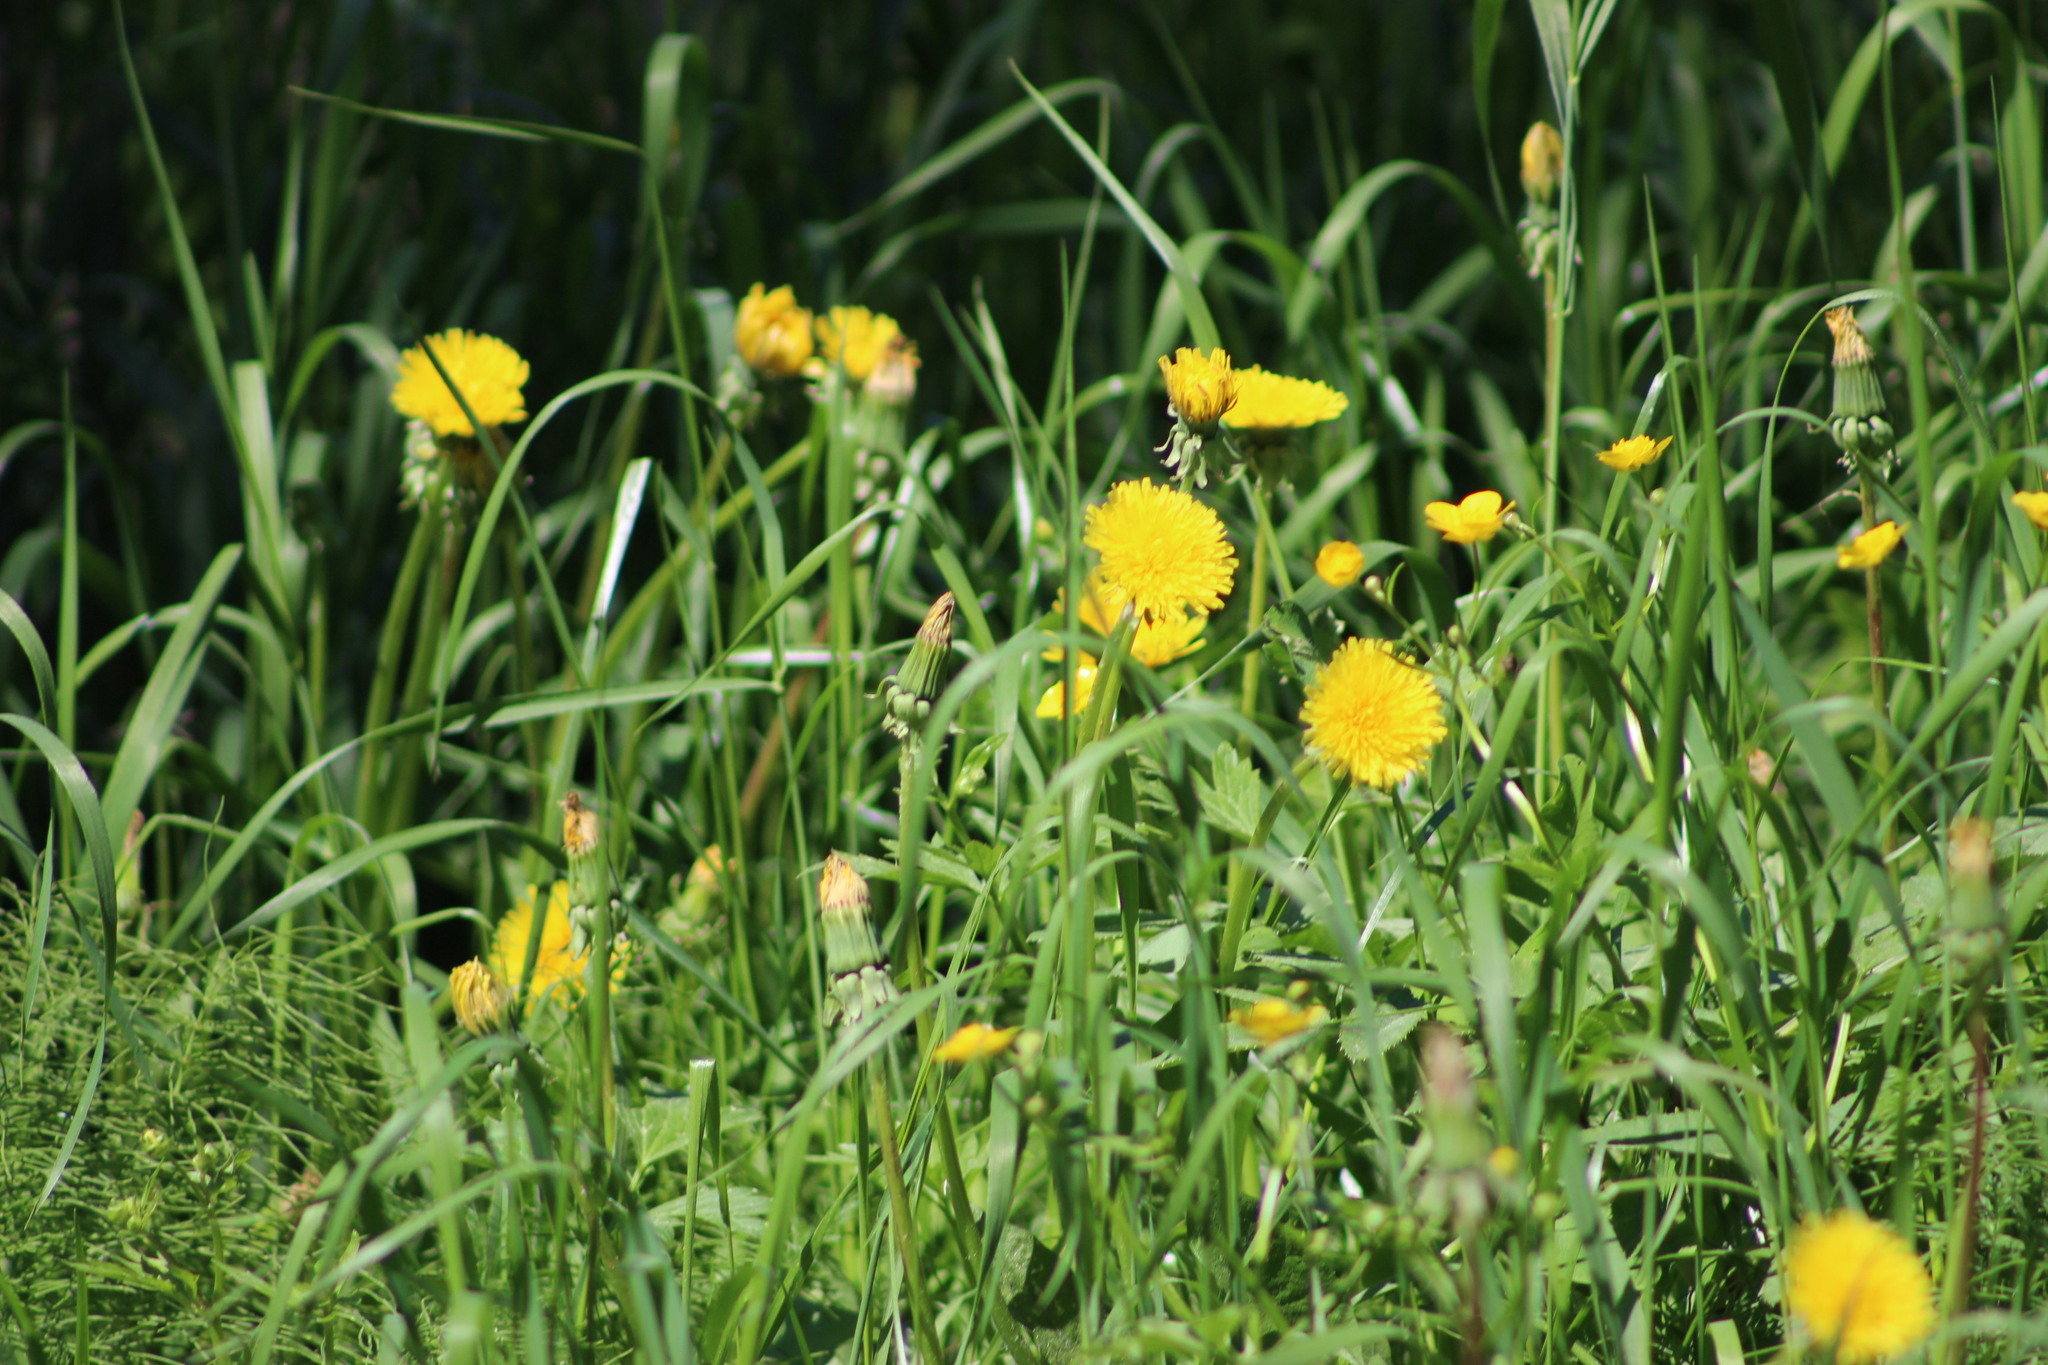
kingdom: Plantae
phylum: Tracheophyta
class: Magnoliopsida
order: Asterales
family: Asteraceae
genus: Taraxacum
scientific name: Taraxacum officinale
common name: Common dandelion
